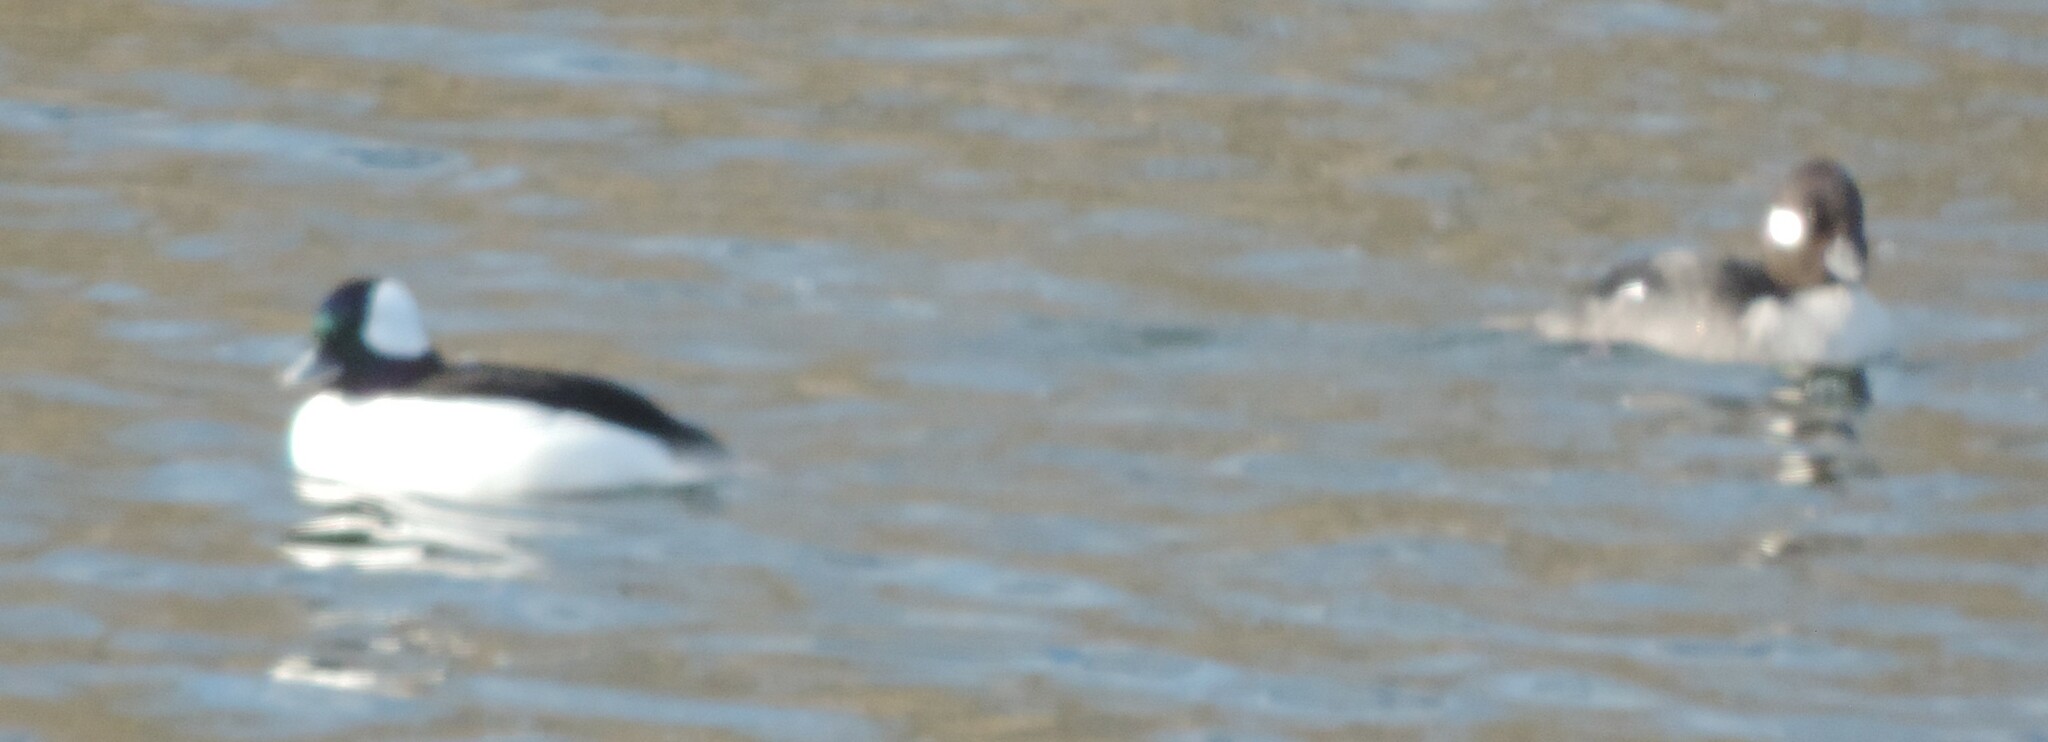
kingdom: Animalia
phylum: Chordata
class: Aves
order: Anseriformes
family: Anatidae
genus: Bucephala
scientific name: Bucephala albeola
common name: Bufflehead
